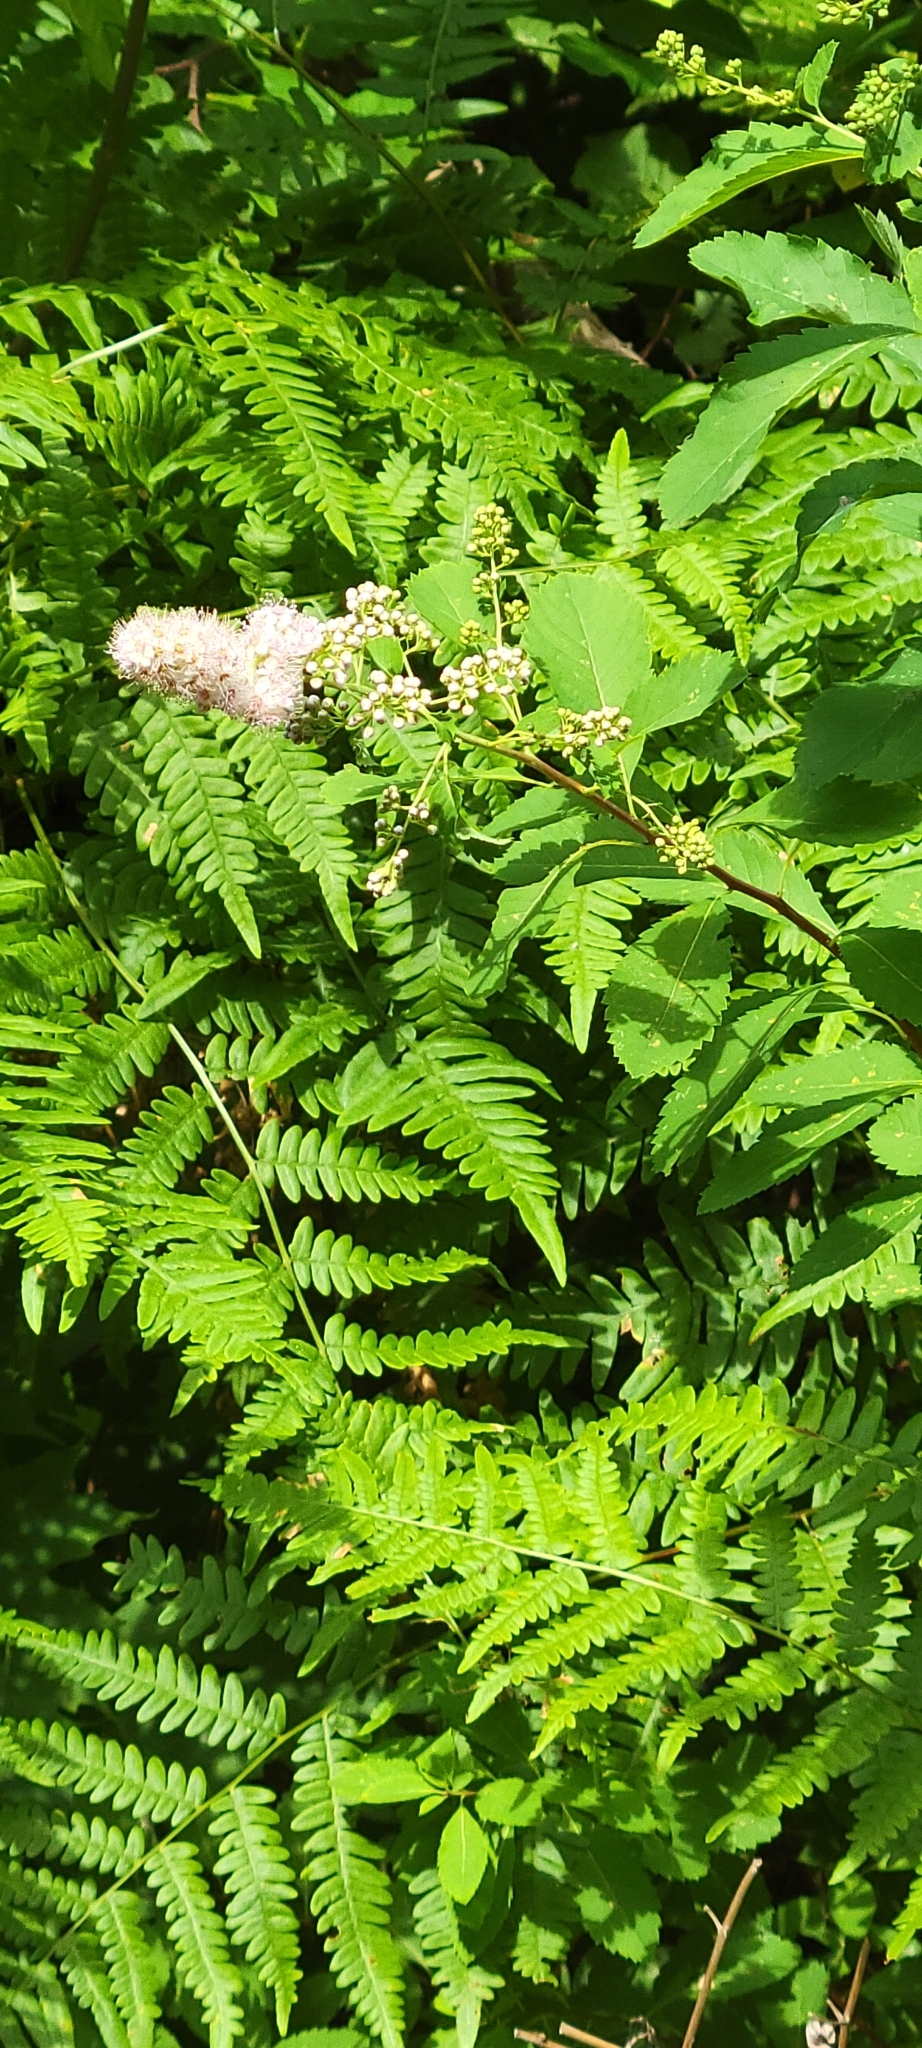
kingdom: Plantae
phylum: Tracheophyta
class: Magnoliopsida
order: Rosales
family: Rosaceae
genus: Spiraea
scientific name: Spiraea alba
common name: Pale bridewort
